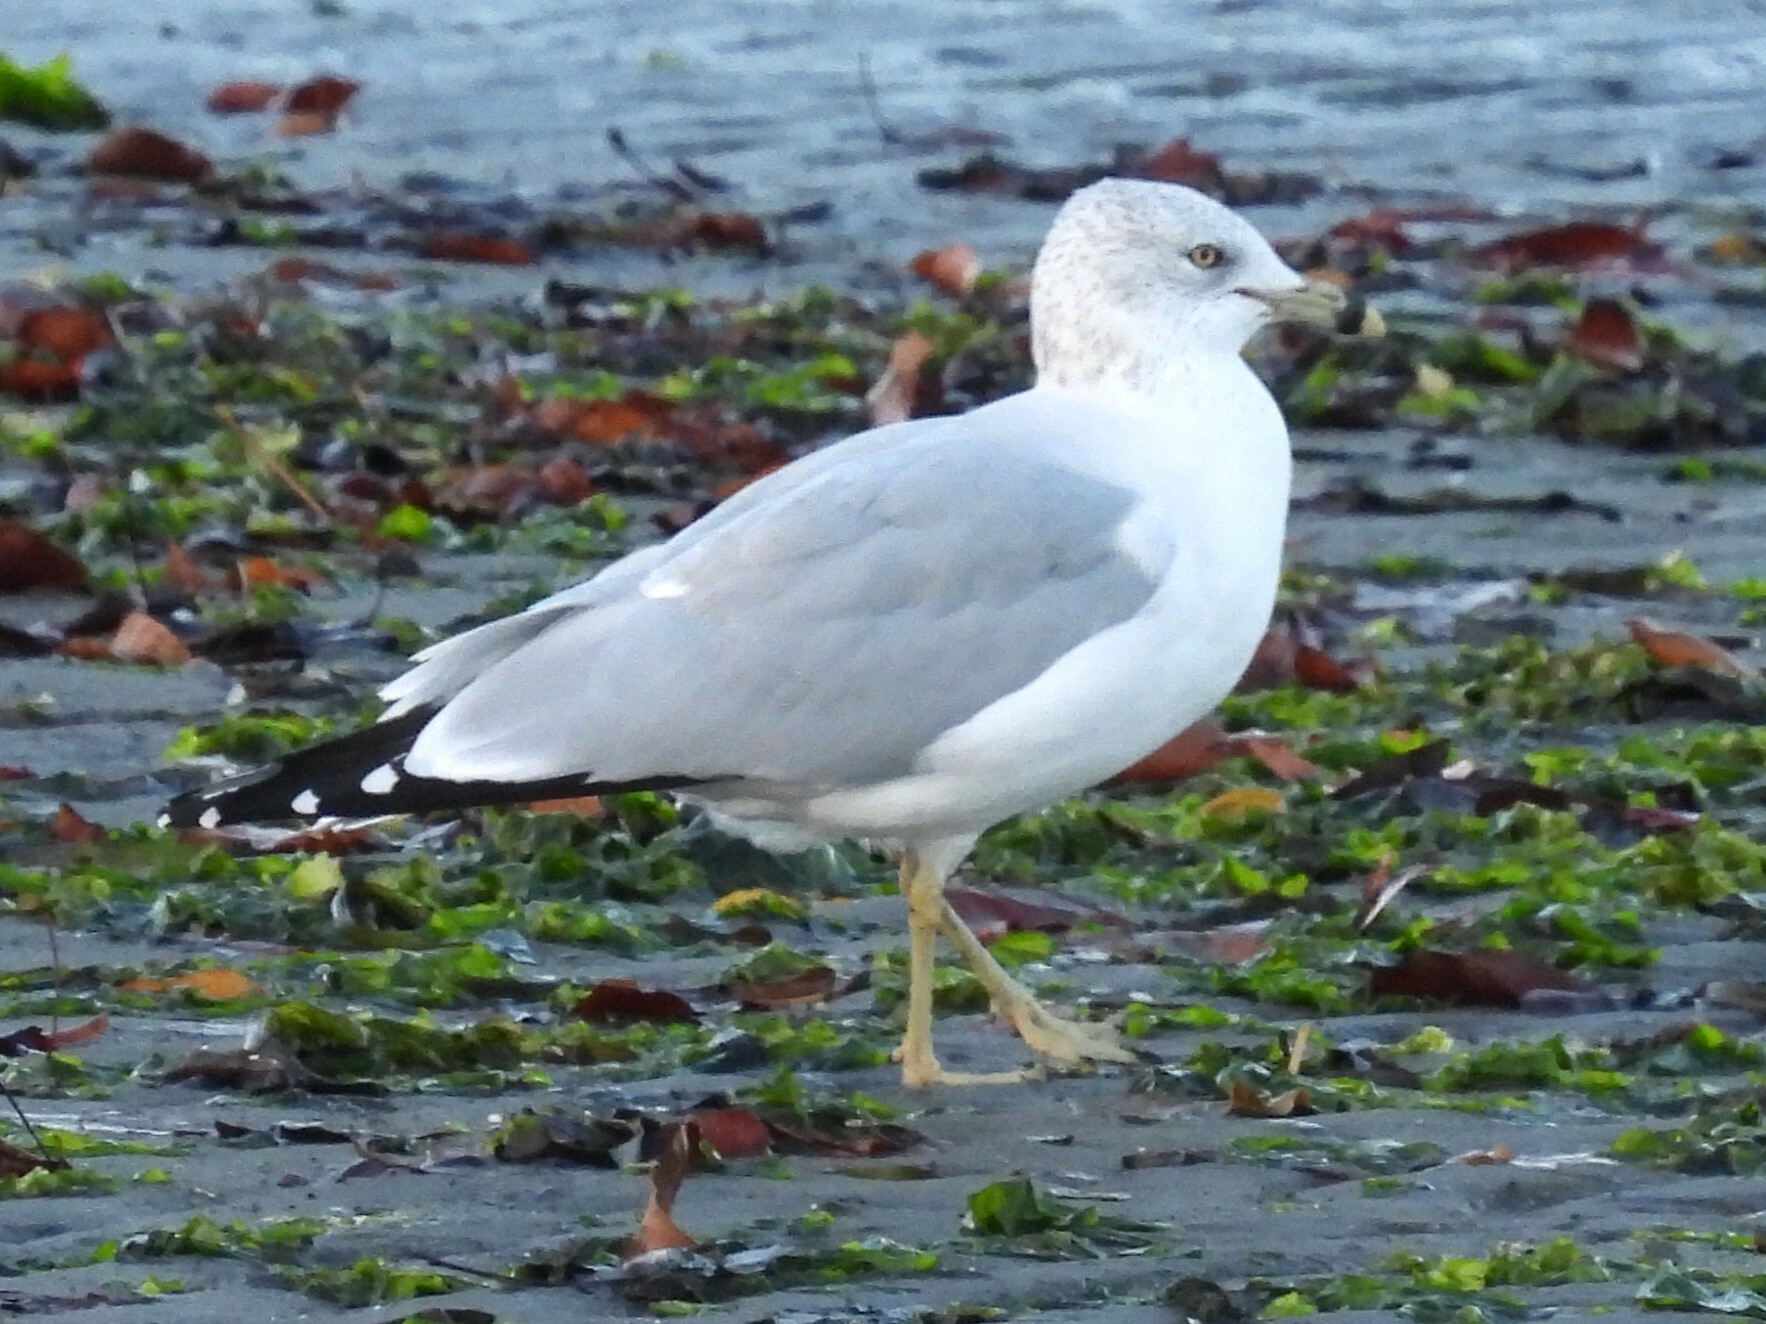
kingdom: Animalia
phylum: Chordata
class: Aves
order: Charadriiformes
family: Laridae
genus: Larus
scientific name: Larus delawarensis
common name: Ring-billed gull
